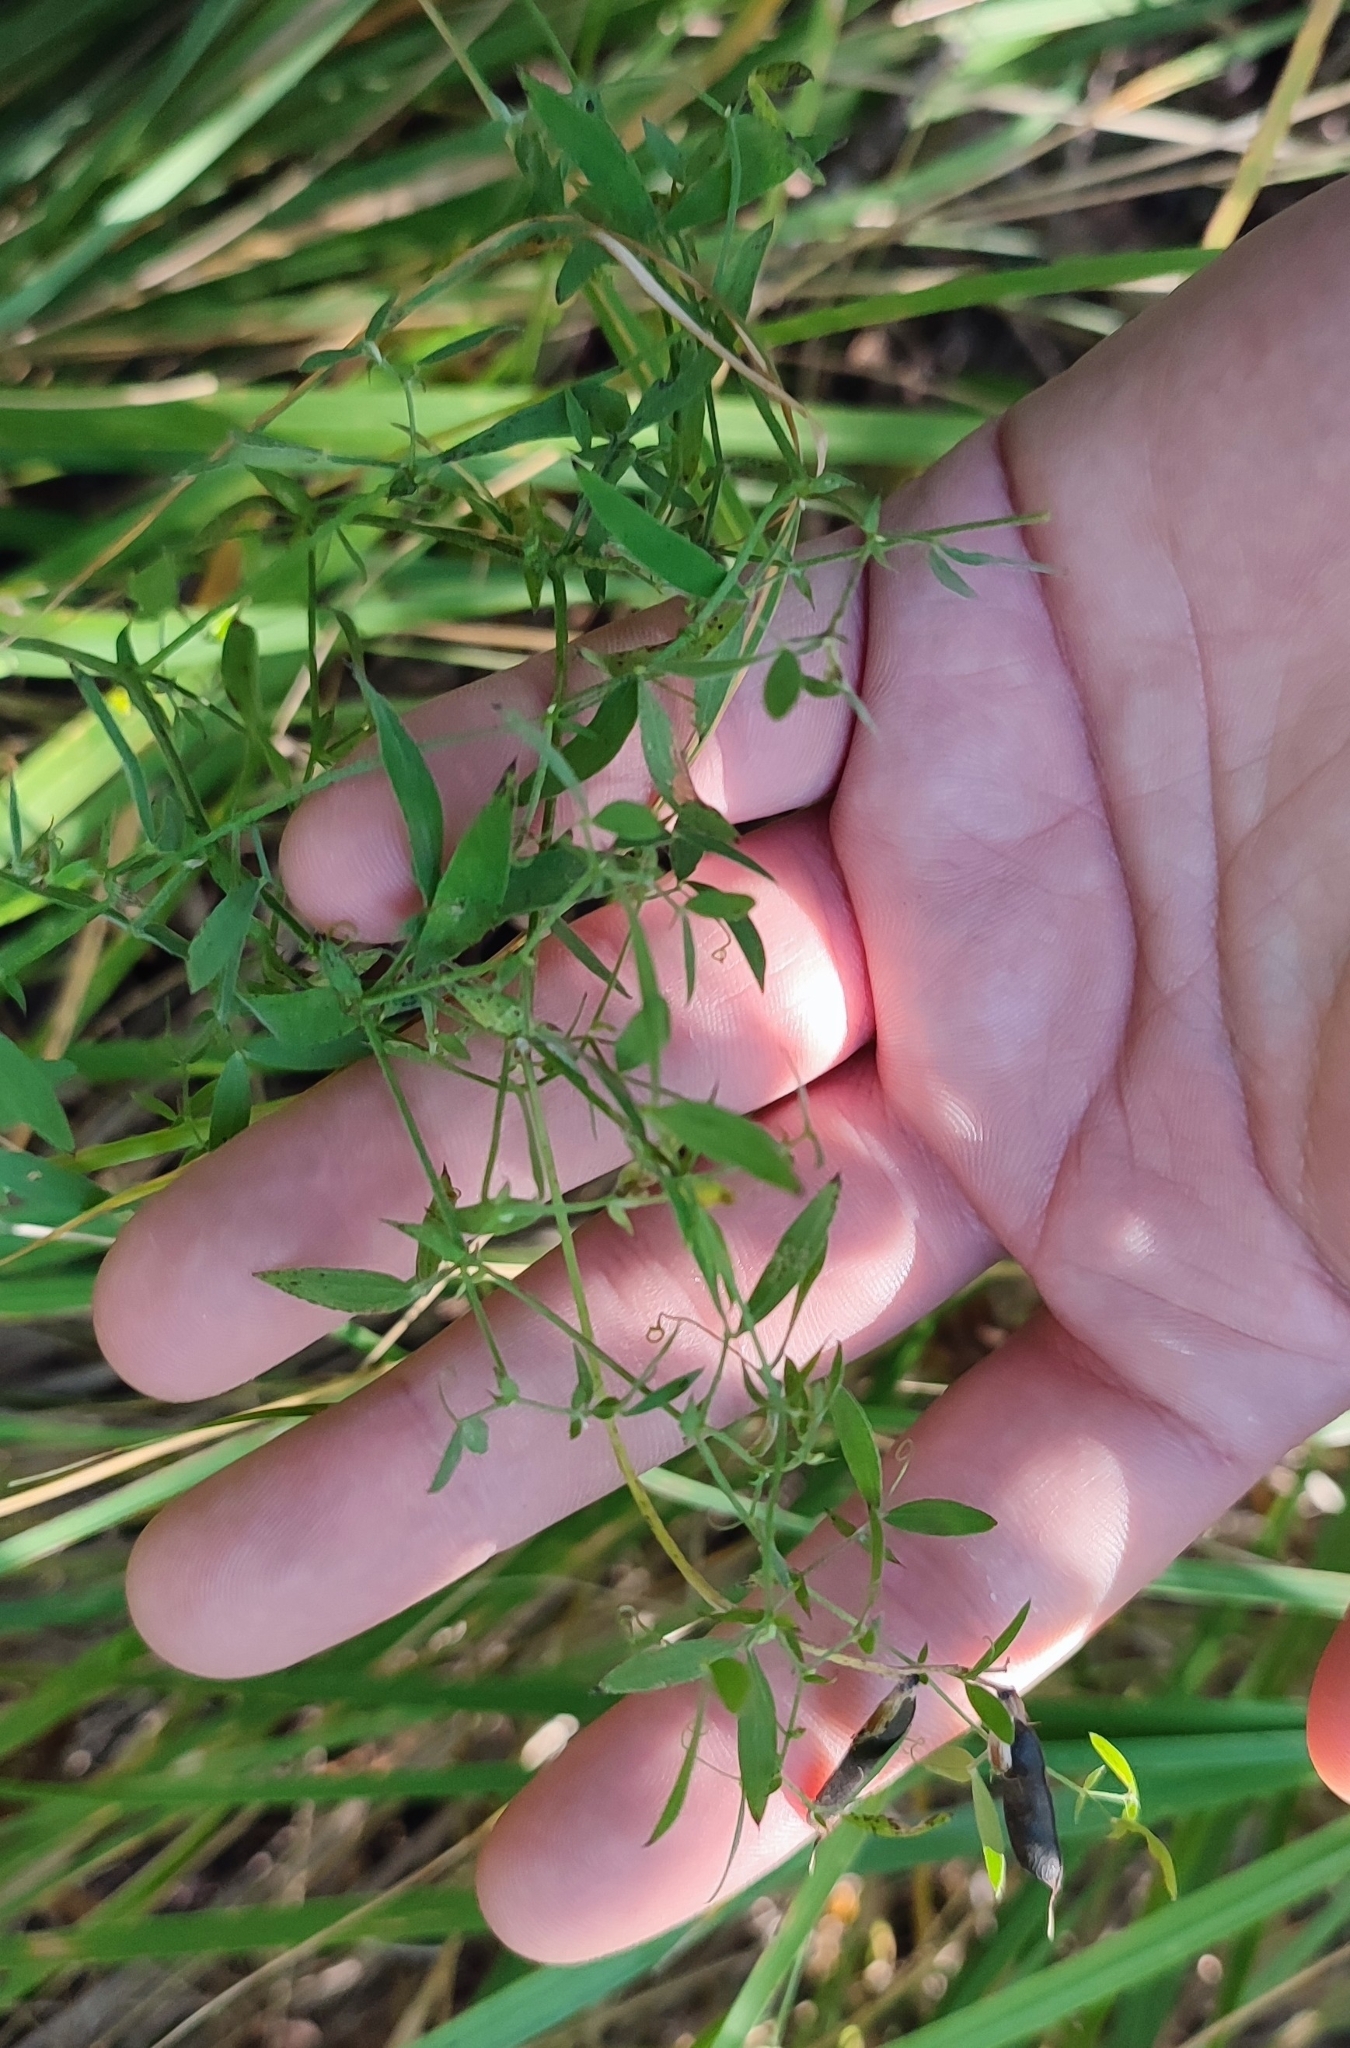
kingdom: Plantae
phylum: Tracheophyta
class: Magnoliopsida
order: Fabales
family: Fabaceae
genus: Lathyrus
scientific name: Lathyrus pratensis
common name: Meadow vetchling
